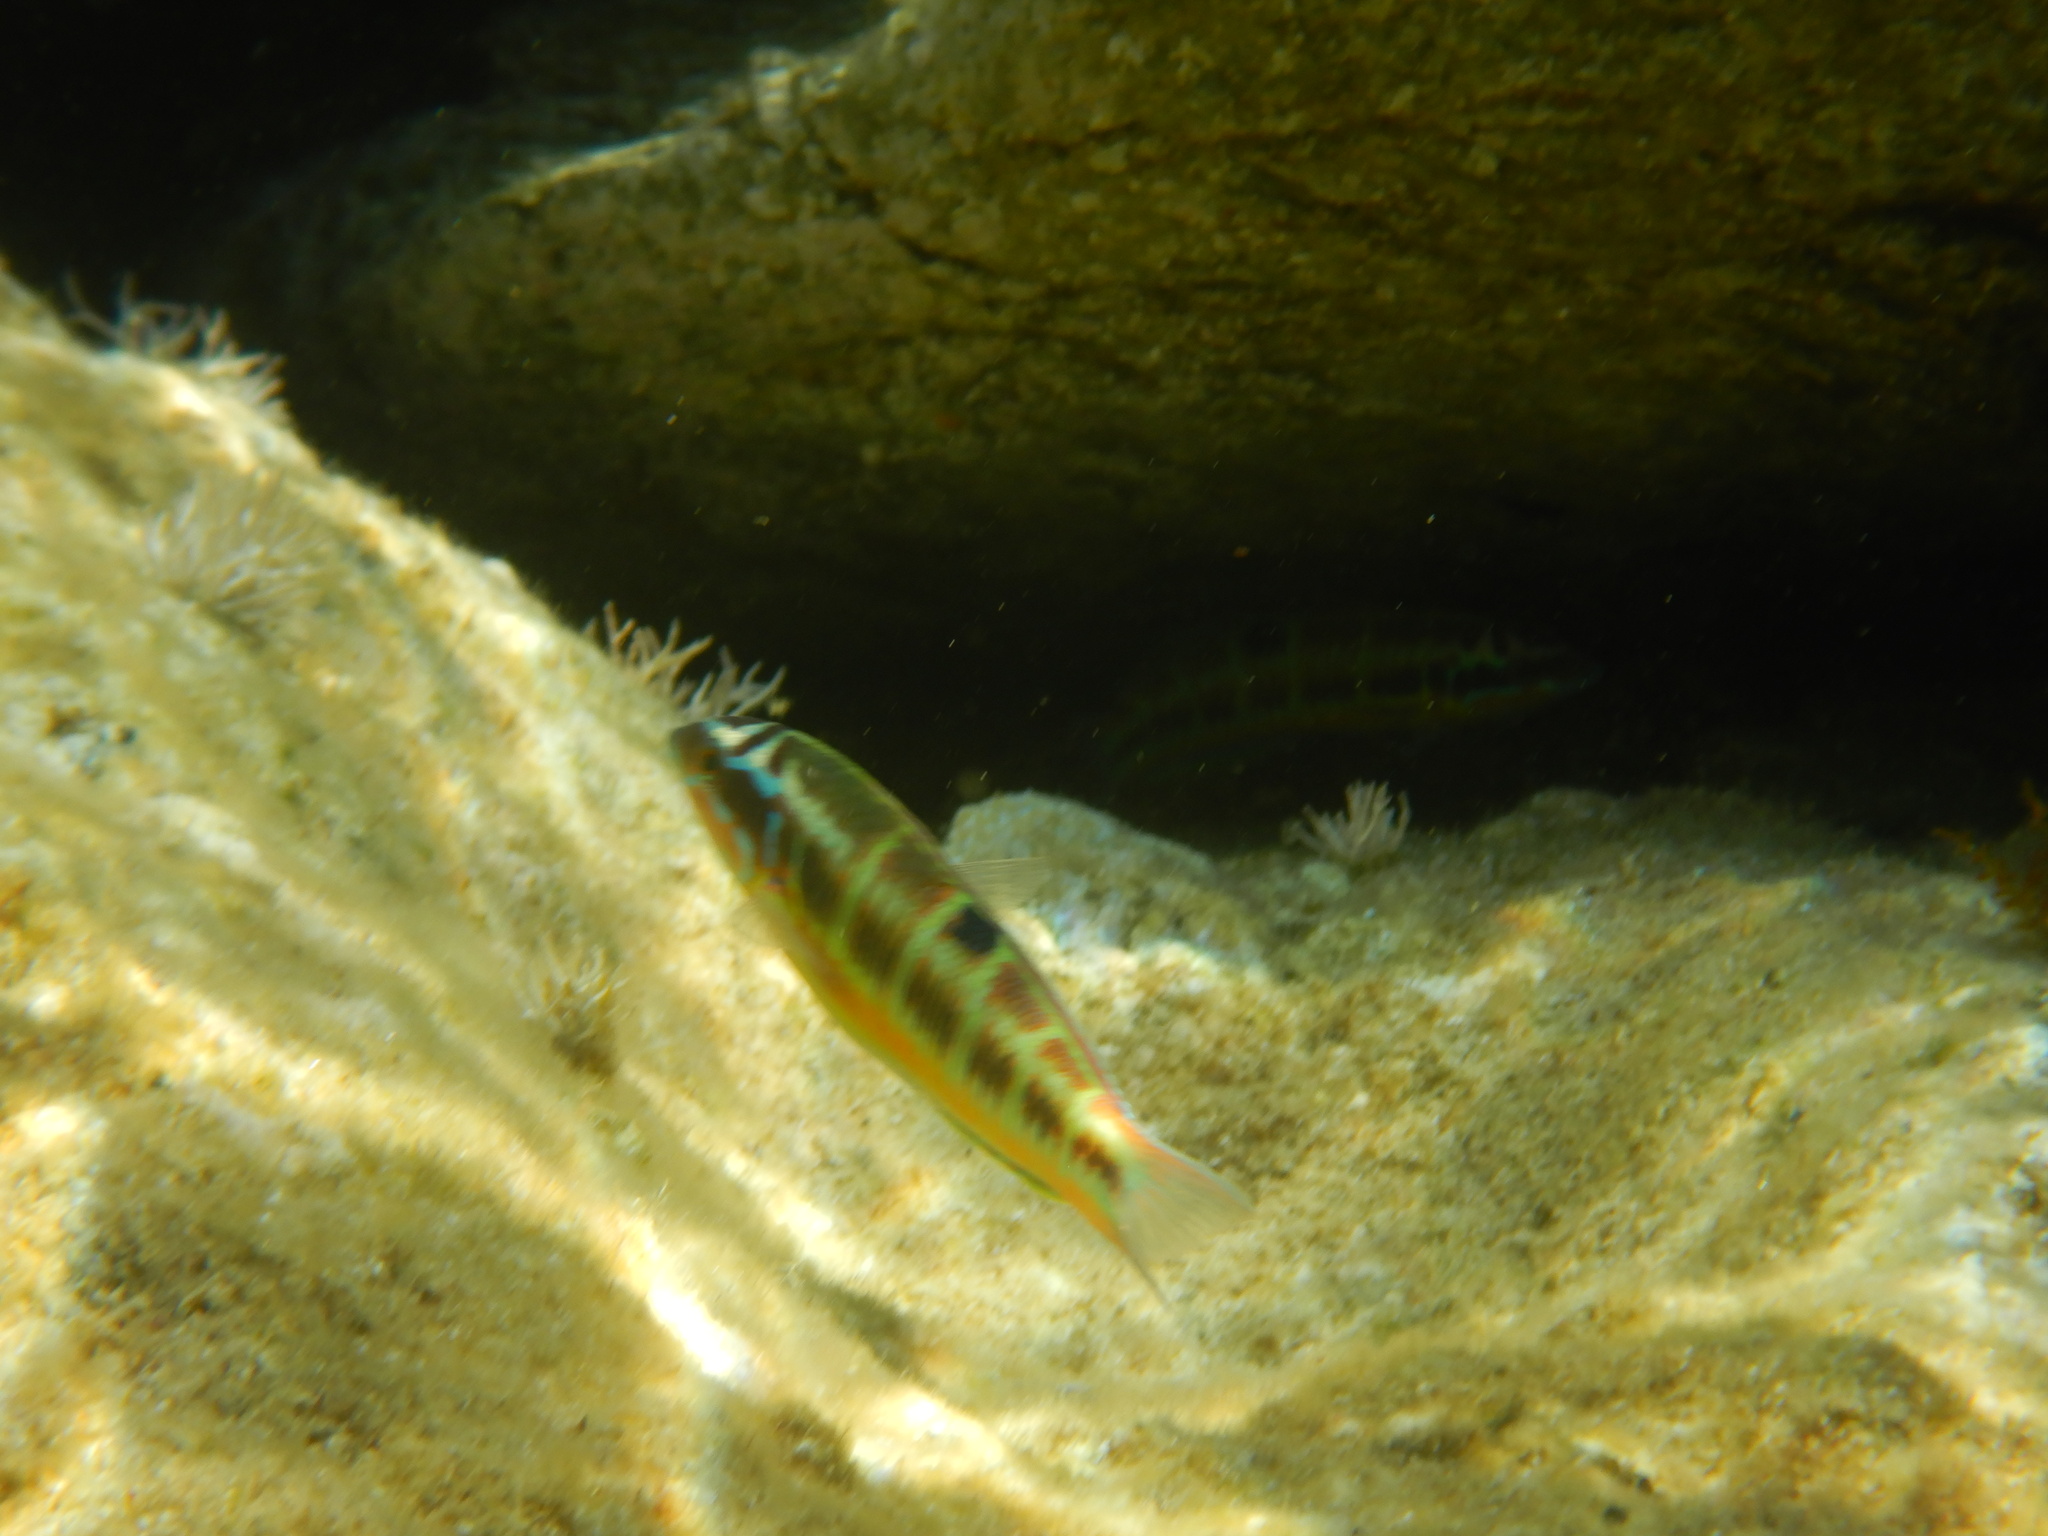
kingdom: Animalia
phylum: Chordata
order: Perciformes
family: Labridae
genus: Thalassoma
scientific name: Thalassoma pavo
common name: Ornate wrasse
